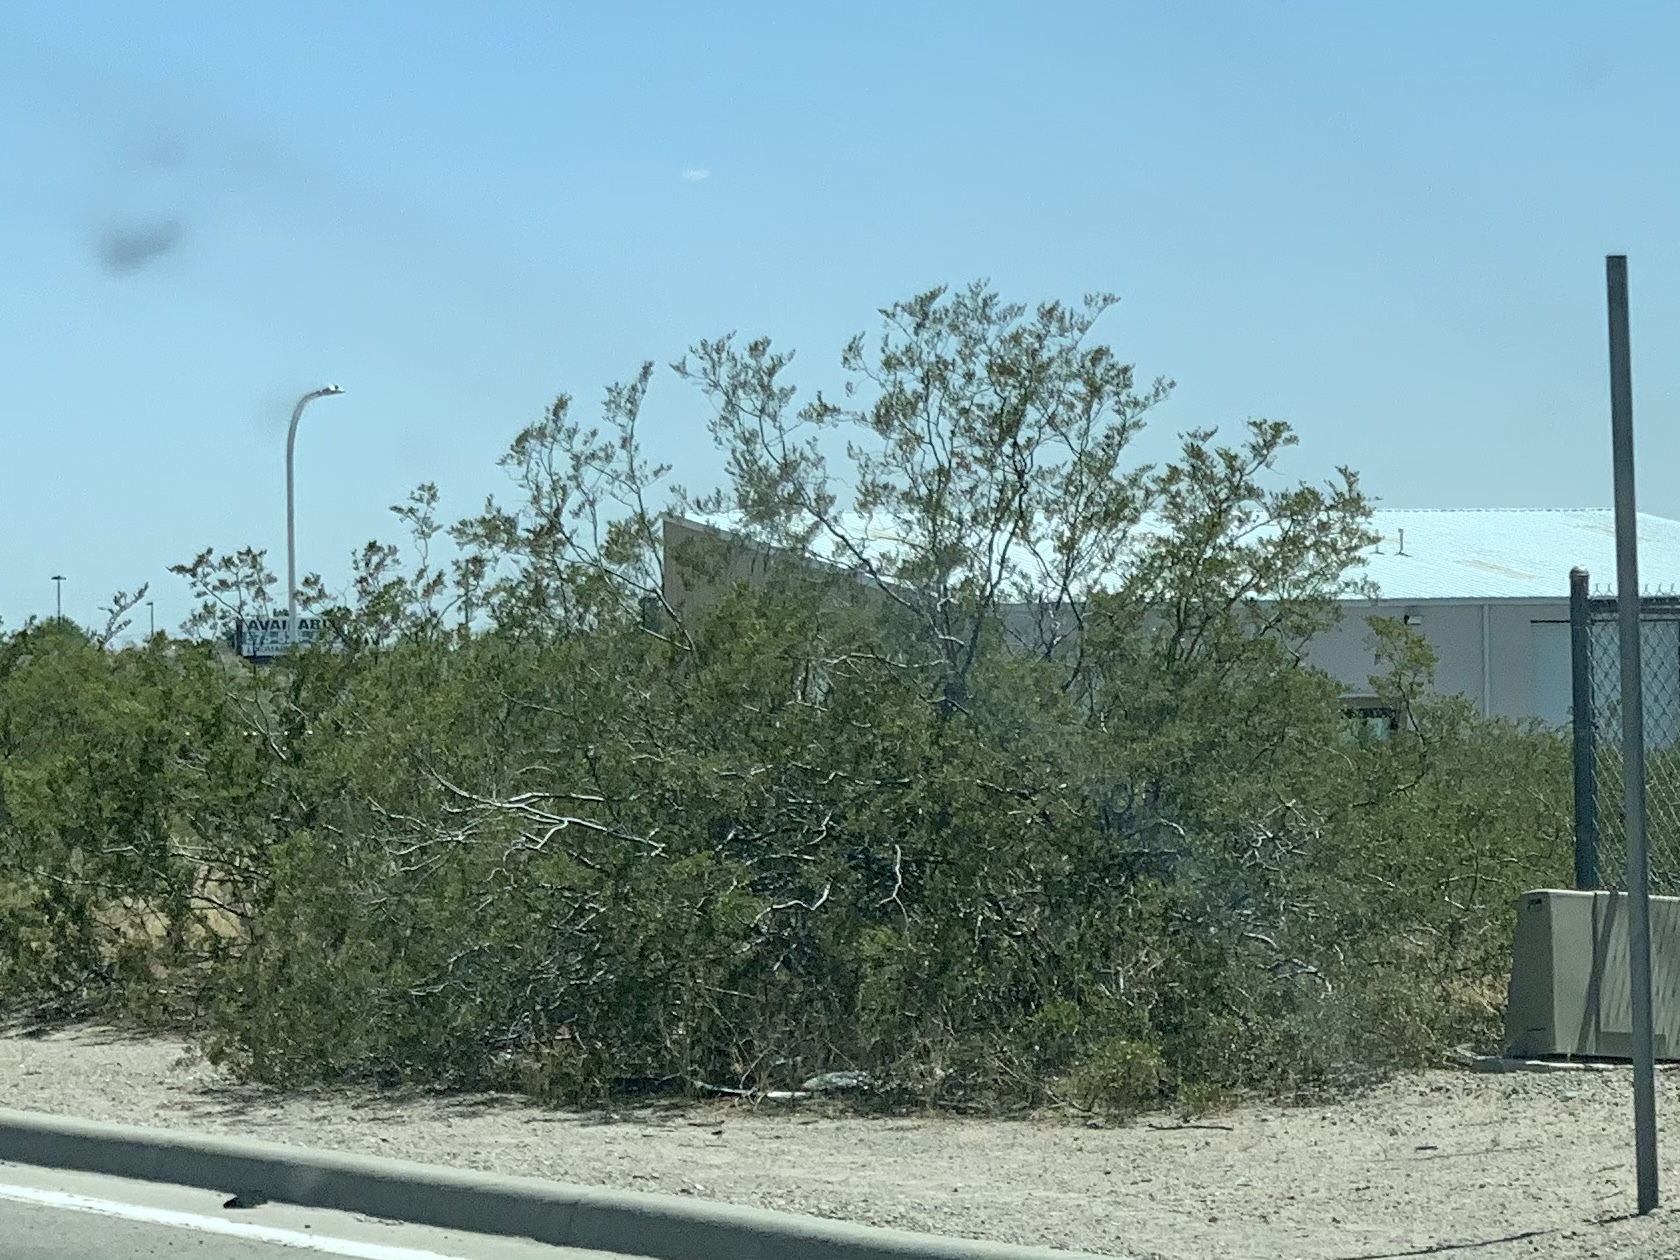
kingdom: Plantae
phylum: Tracheophyta
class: Magnoliopsida
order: Zygophyllales
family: Zygophyllaceae
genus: Larrea
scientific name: Larrea tridentata
